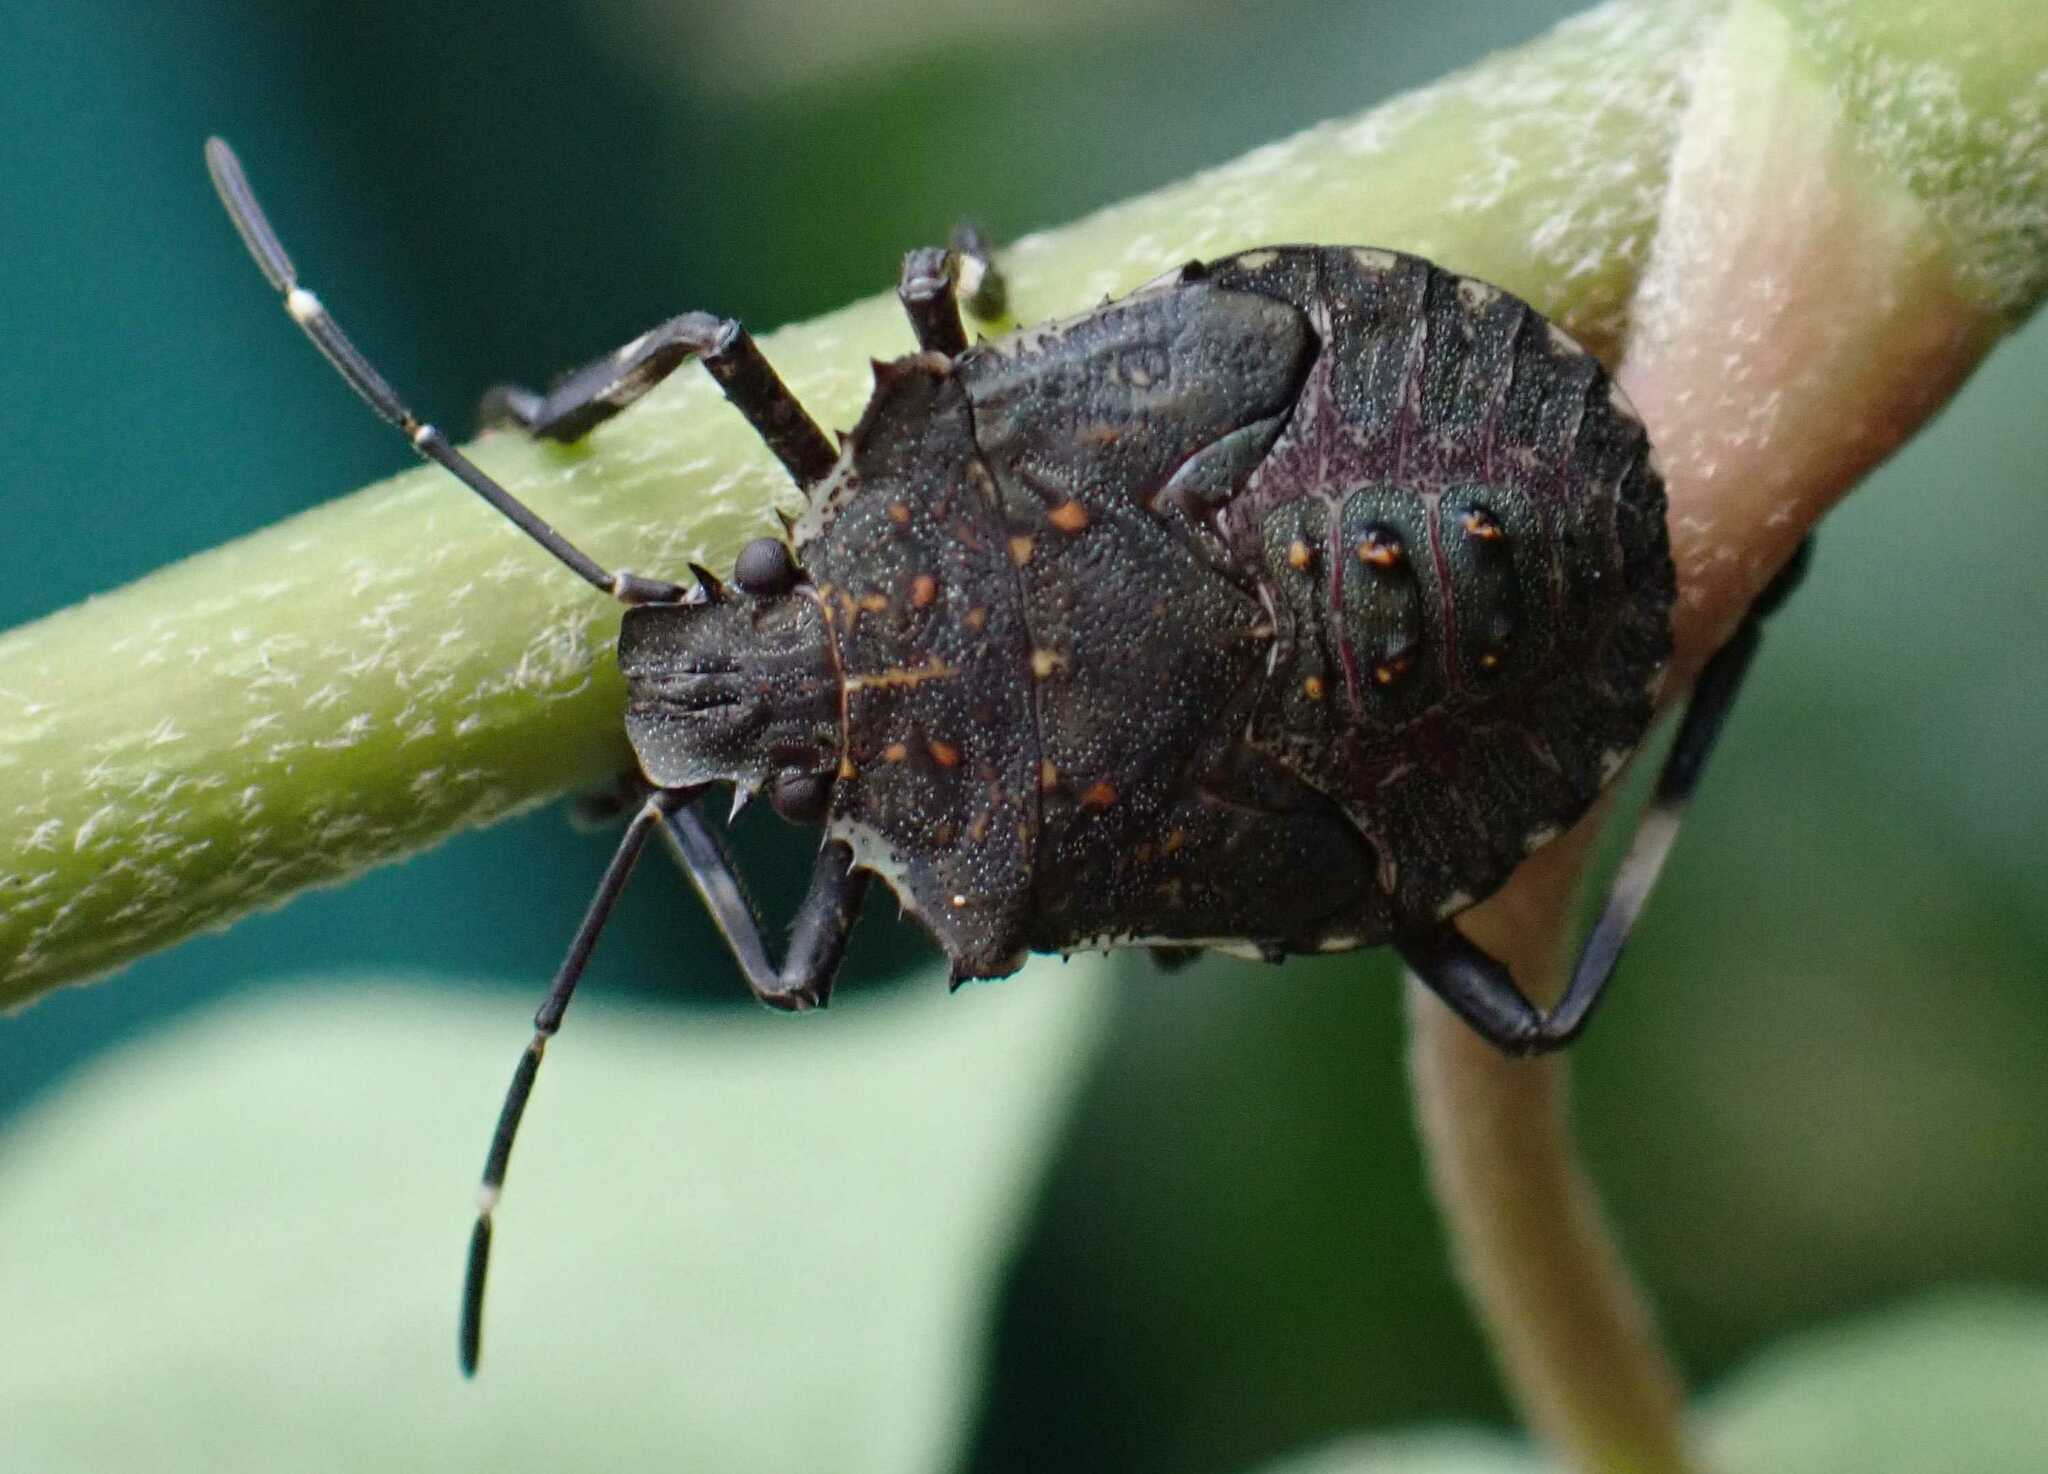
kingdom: Animalia
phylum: Arthropoda
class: Insecta
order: Hemiptera
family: Pentatomidae
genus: Halyomorpha
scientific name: Halyomorpha halys
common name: Brown marmorated stink bug
